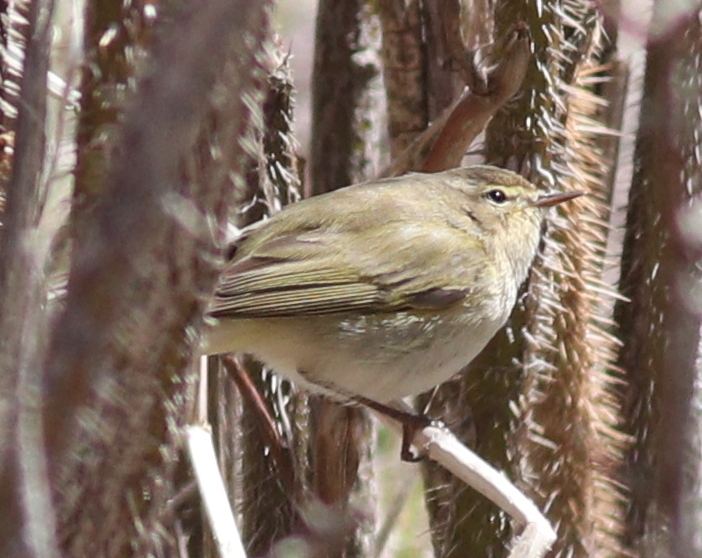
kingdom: Animalia
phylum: Chordata
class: Aves
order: Passeriformes
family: Phylloscopidae
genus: Phylloscopus
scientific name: Phylloscopus collybita
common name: Common chiffchaff
